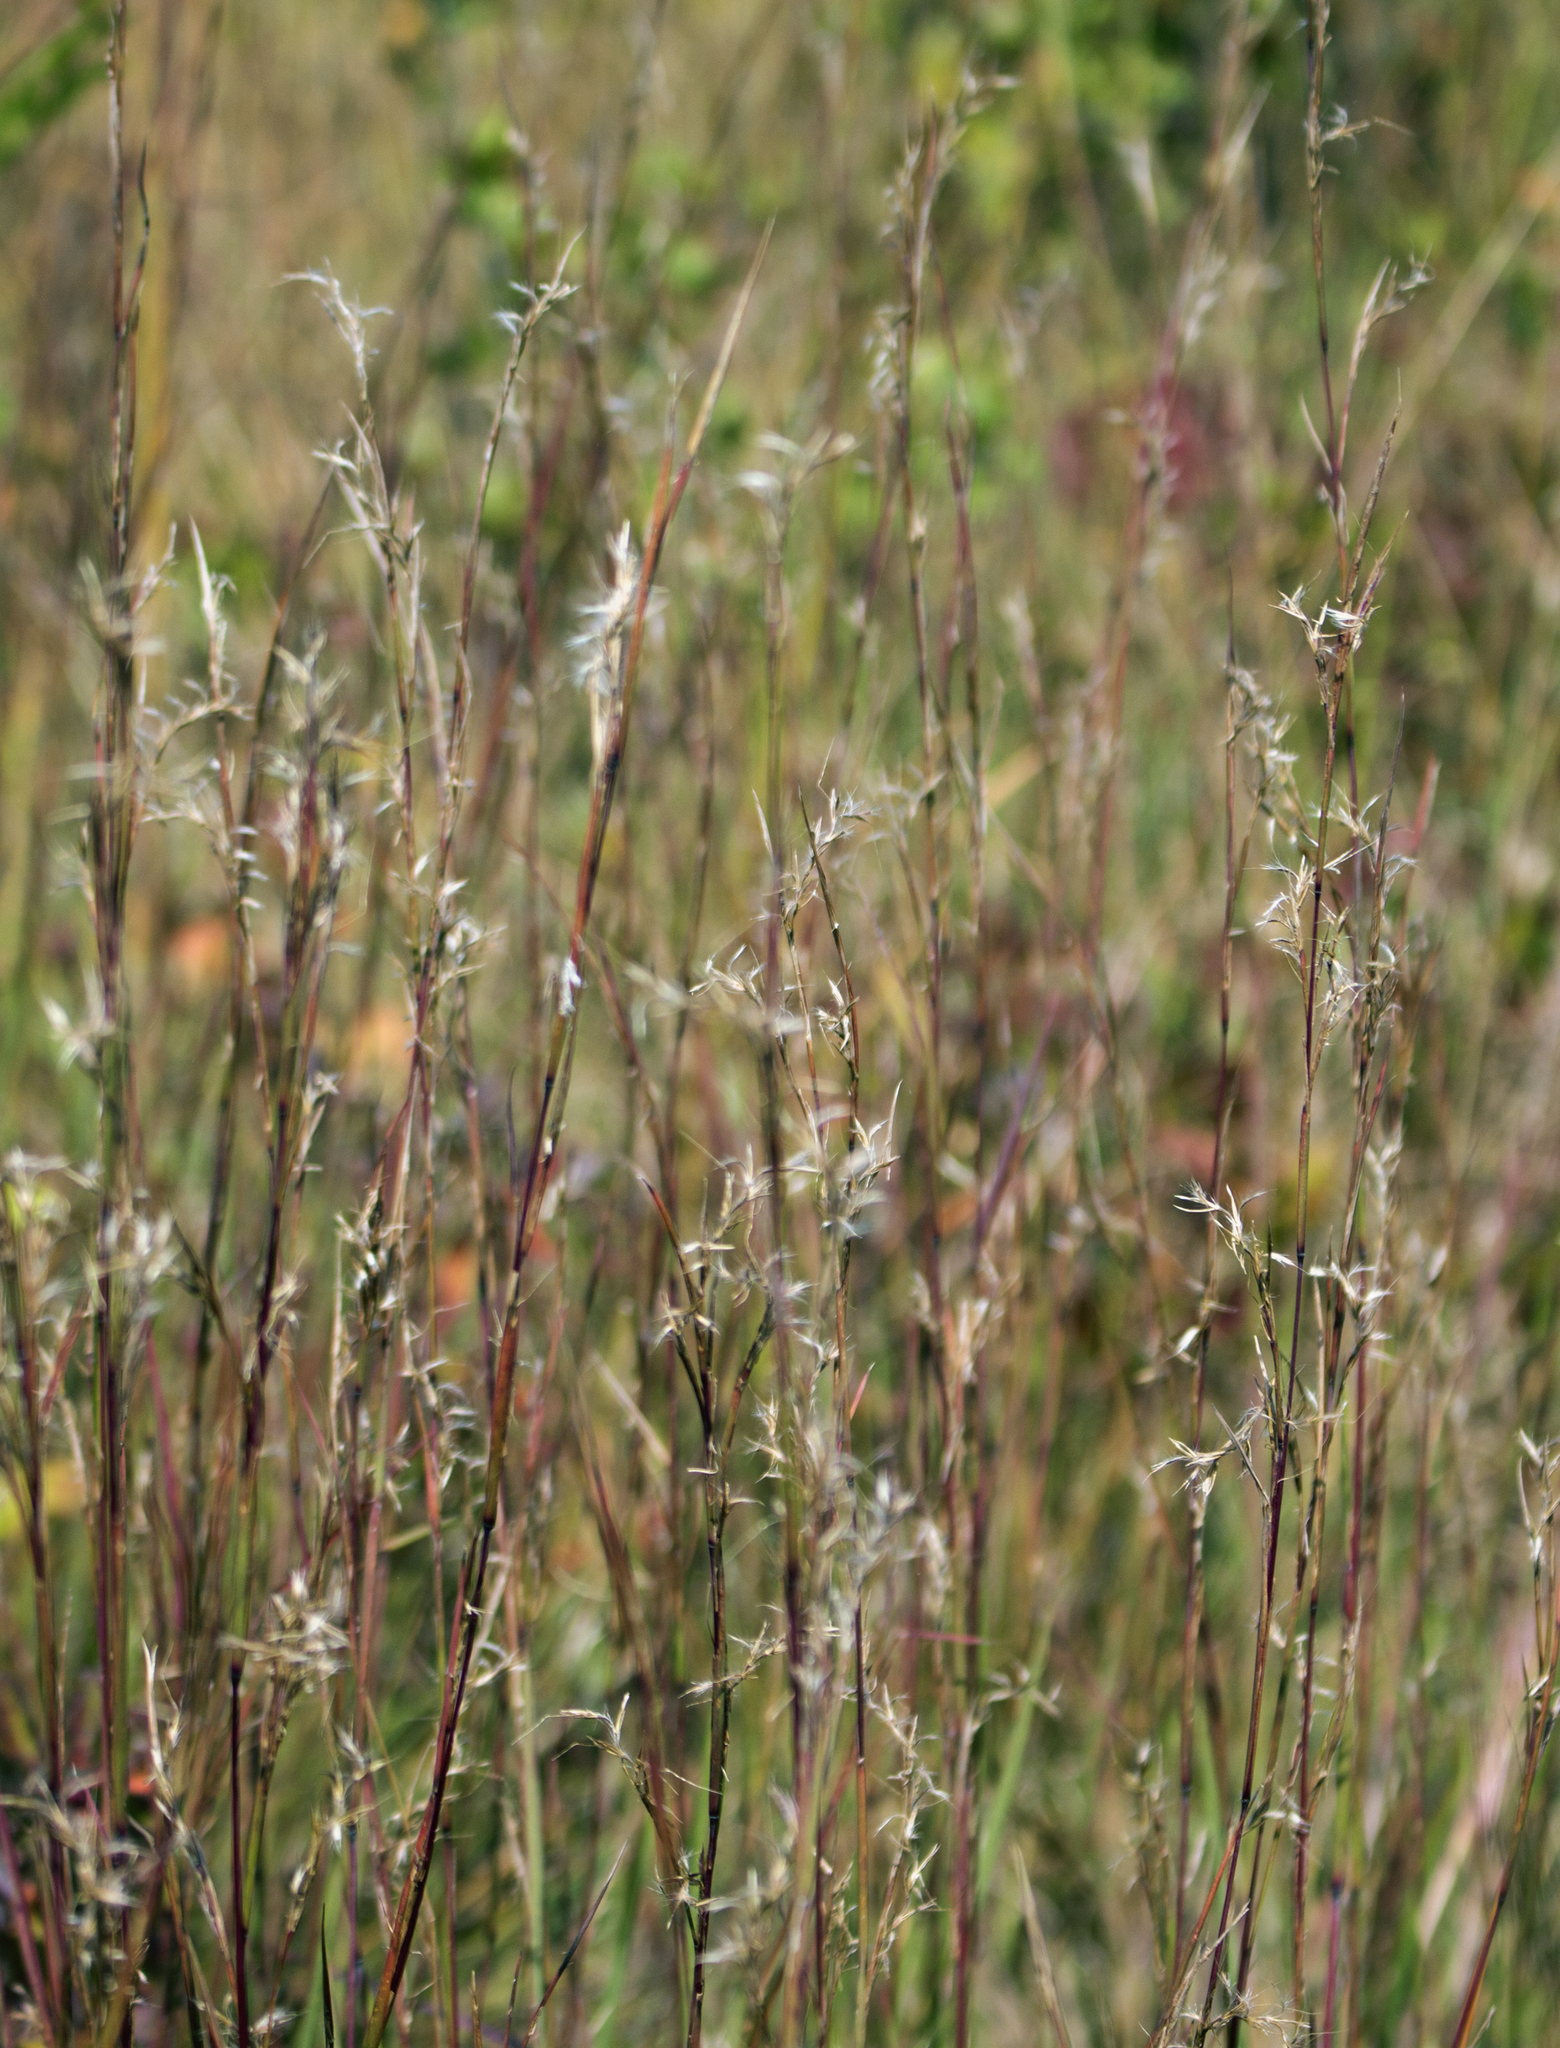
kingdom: Plantae
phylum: Tracheophyta
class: Liliopsida
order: Poales
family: Poaceae
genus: Schizachyrium
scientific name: Schizachyrium scoparium
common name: Little bluestem
